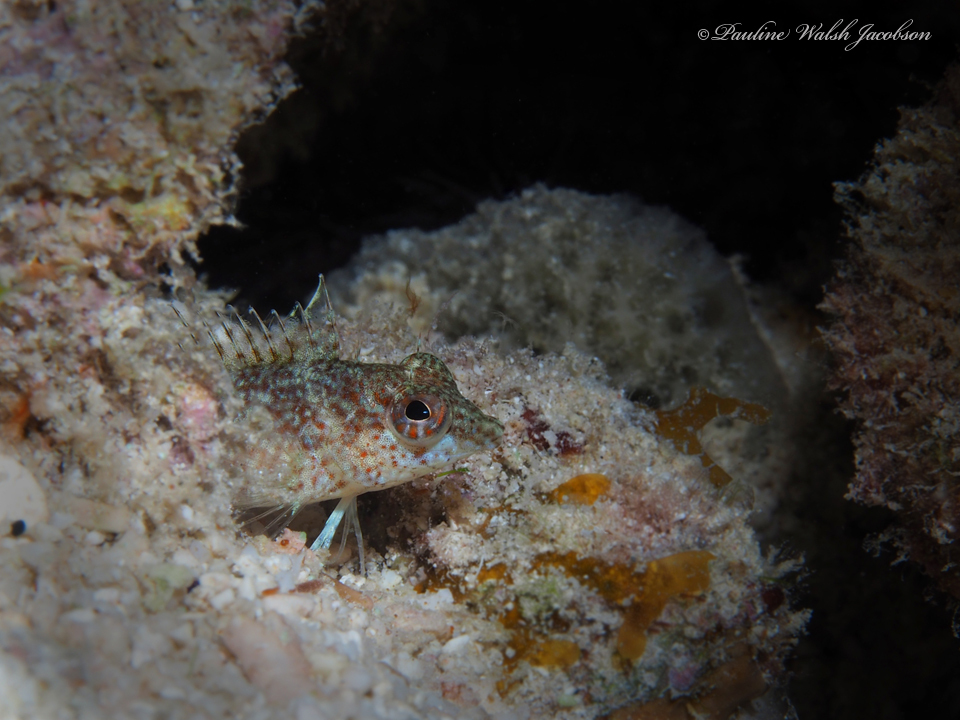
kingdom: Animalia
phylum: Chordata
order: Perciformes
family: Labrisomidae
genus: Malacoctenus
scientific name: Malacoctenus macropus
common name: Rosy blenny
